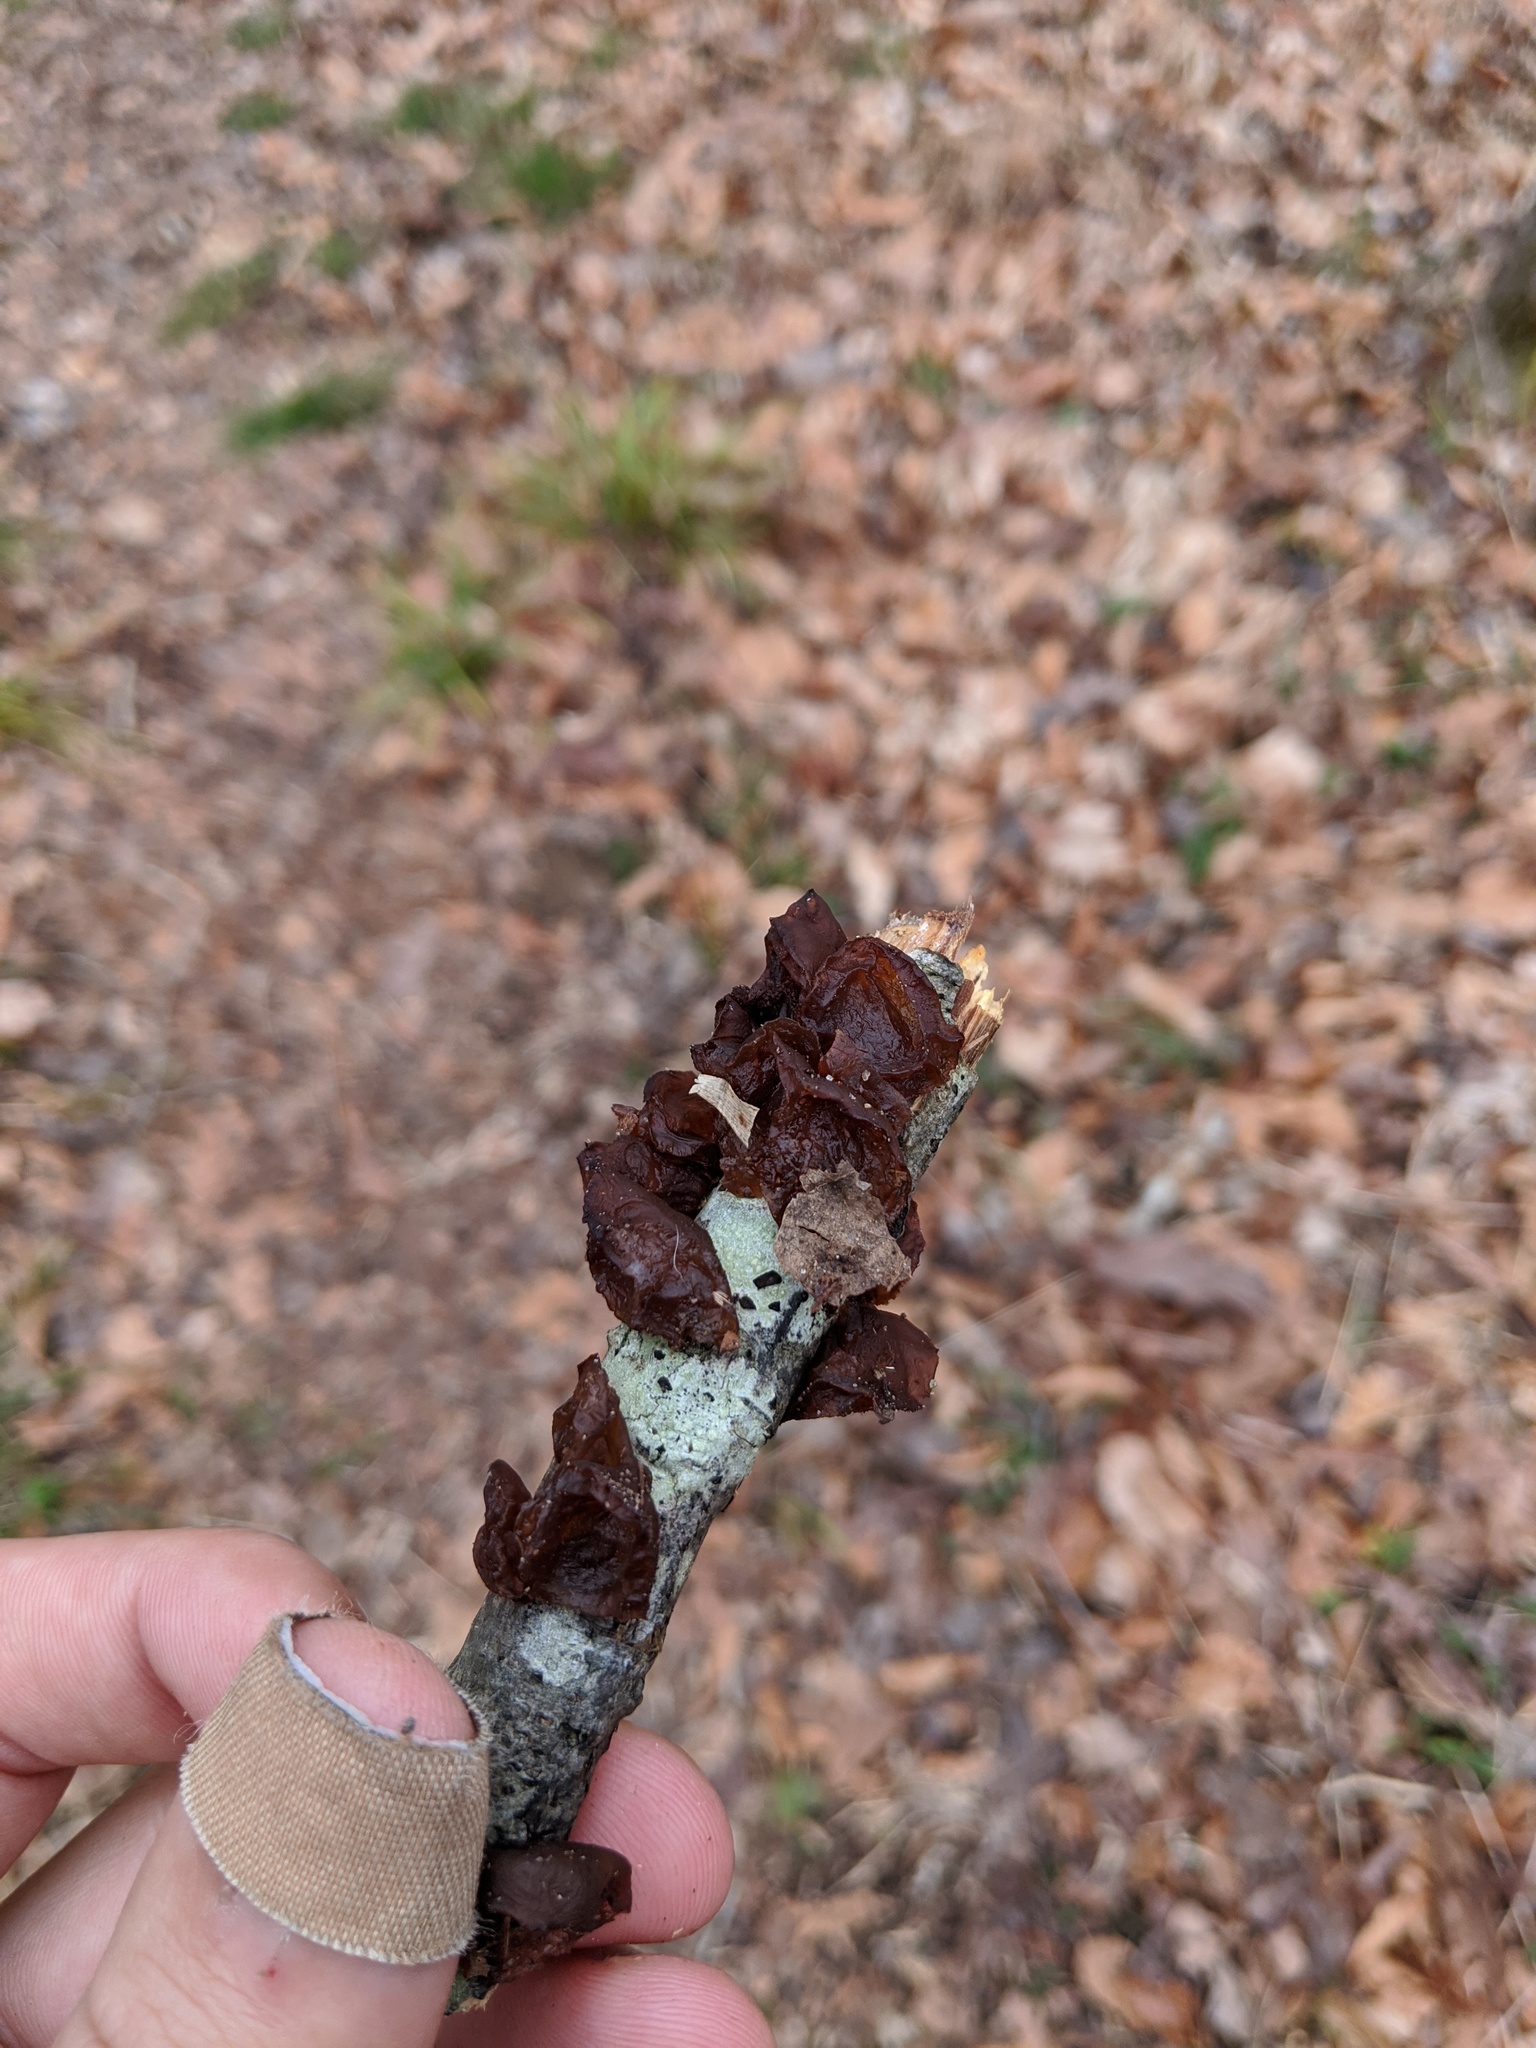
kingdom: Fungi
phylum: Basidiomycota
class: Agaricomycetes
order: Auriculariales
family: Auriculariaceae
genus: Exidia
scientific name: Exidia
